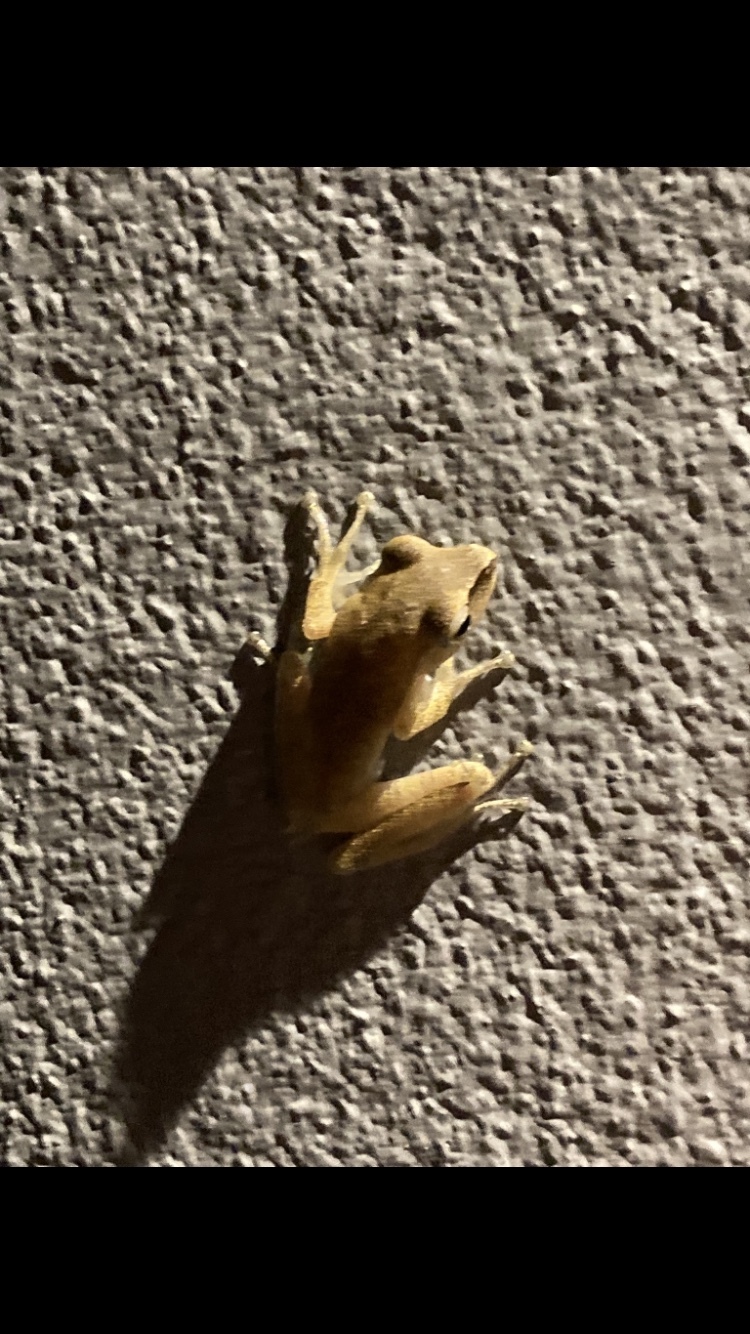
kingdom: Animalia
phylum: Chordata
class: Amphibia
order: Anura
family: Rhacophoridae
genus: Polypedates
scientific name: Polypedates megacephalus
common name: Hong kong whipping frog
